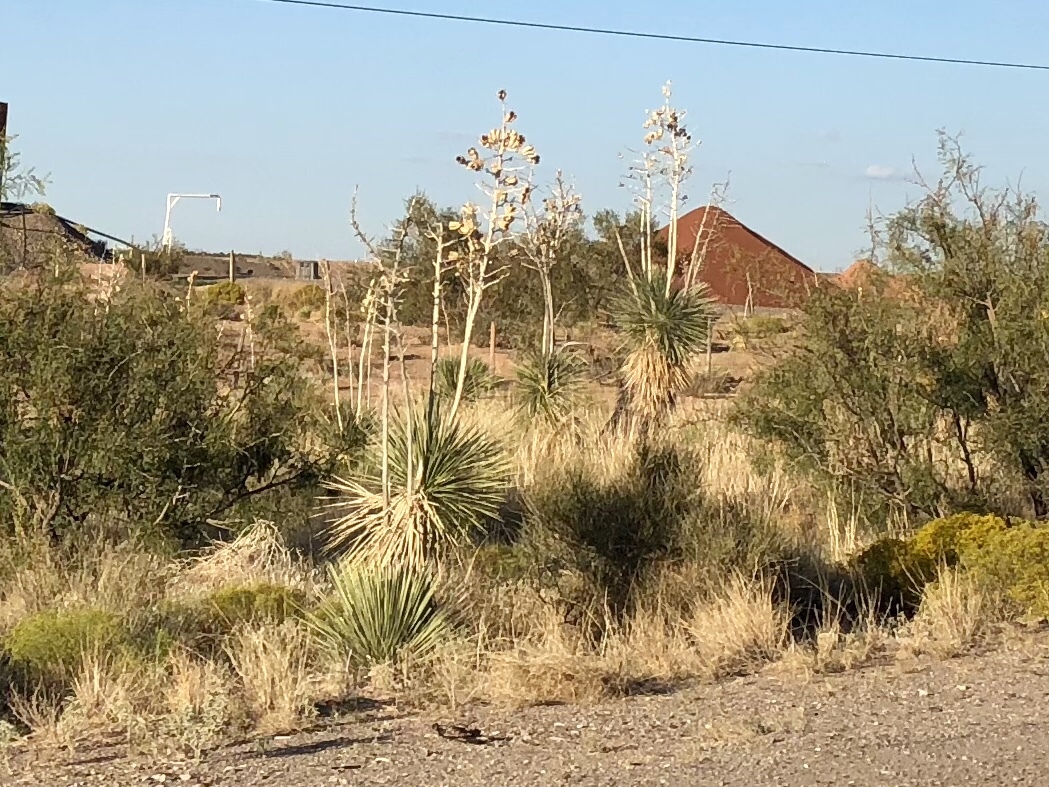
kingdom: Plantae
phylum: Tracheophyta
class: Liliopsida
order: Asparagales
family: Asparagaceae
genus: Yucca
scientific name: Yucca elata
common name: Palmella
